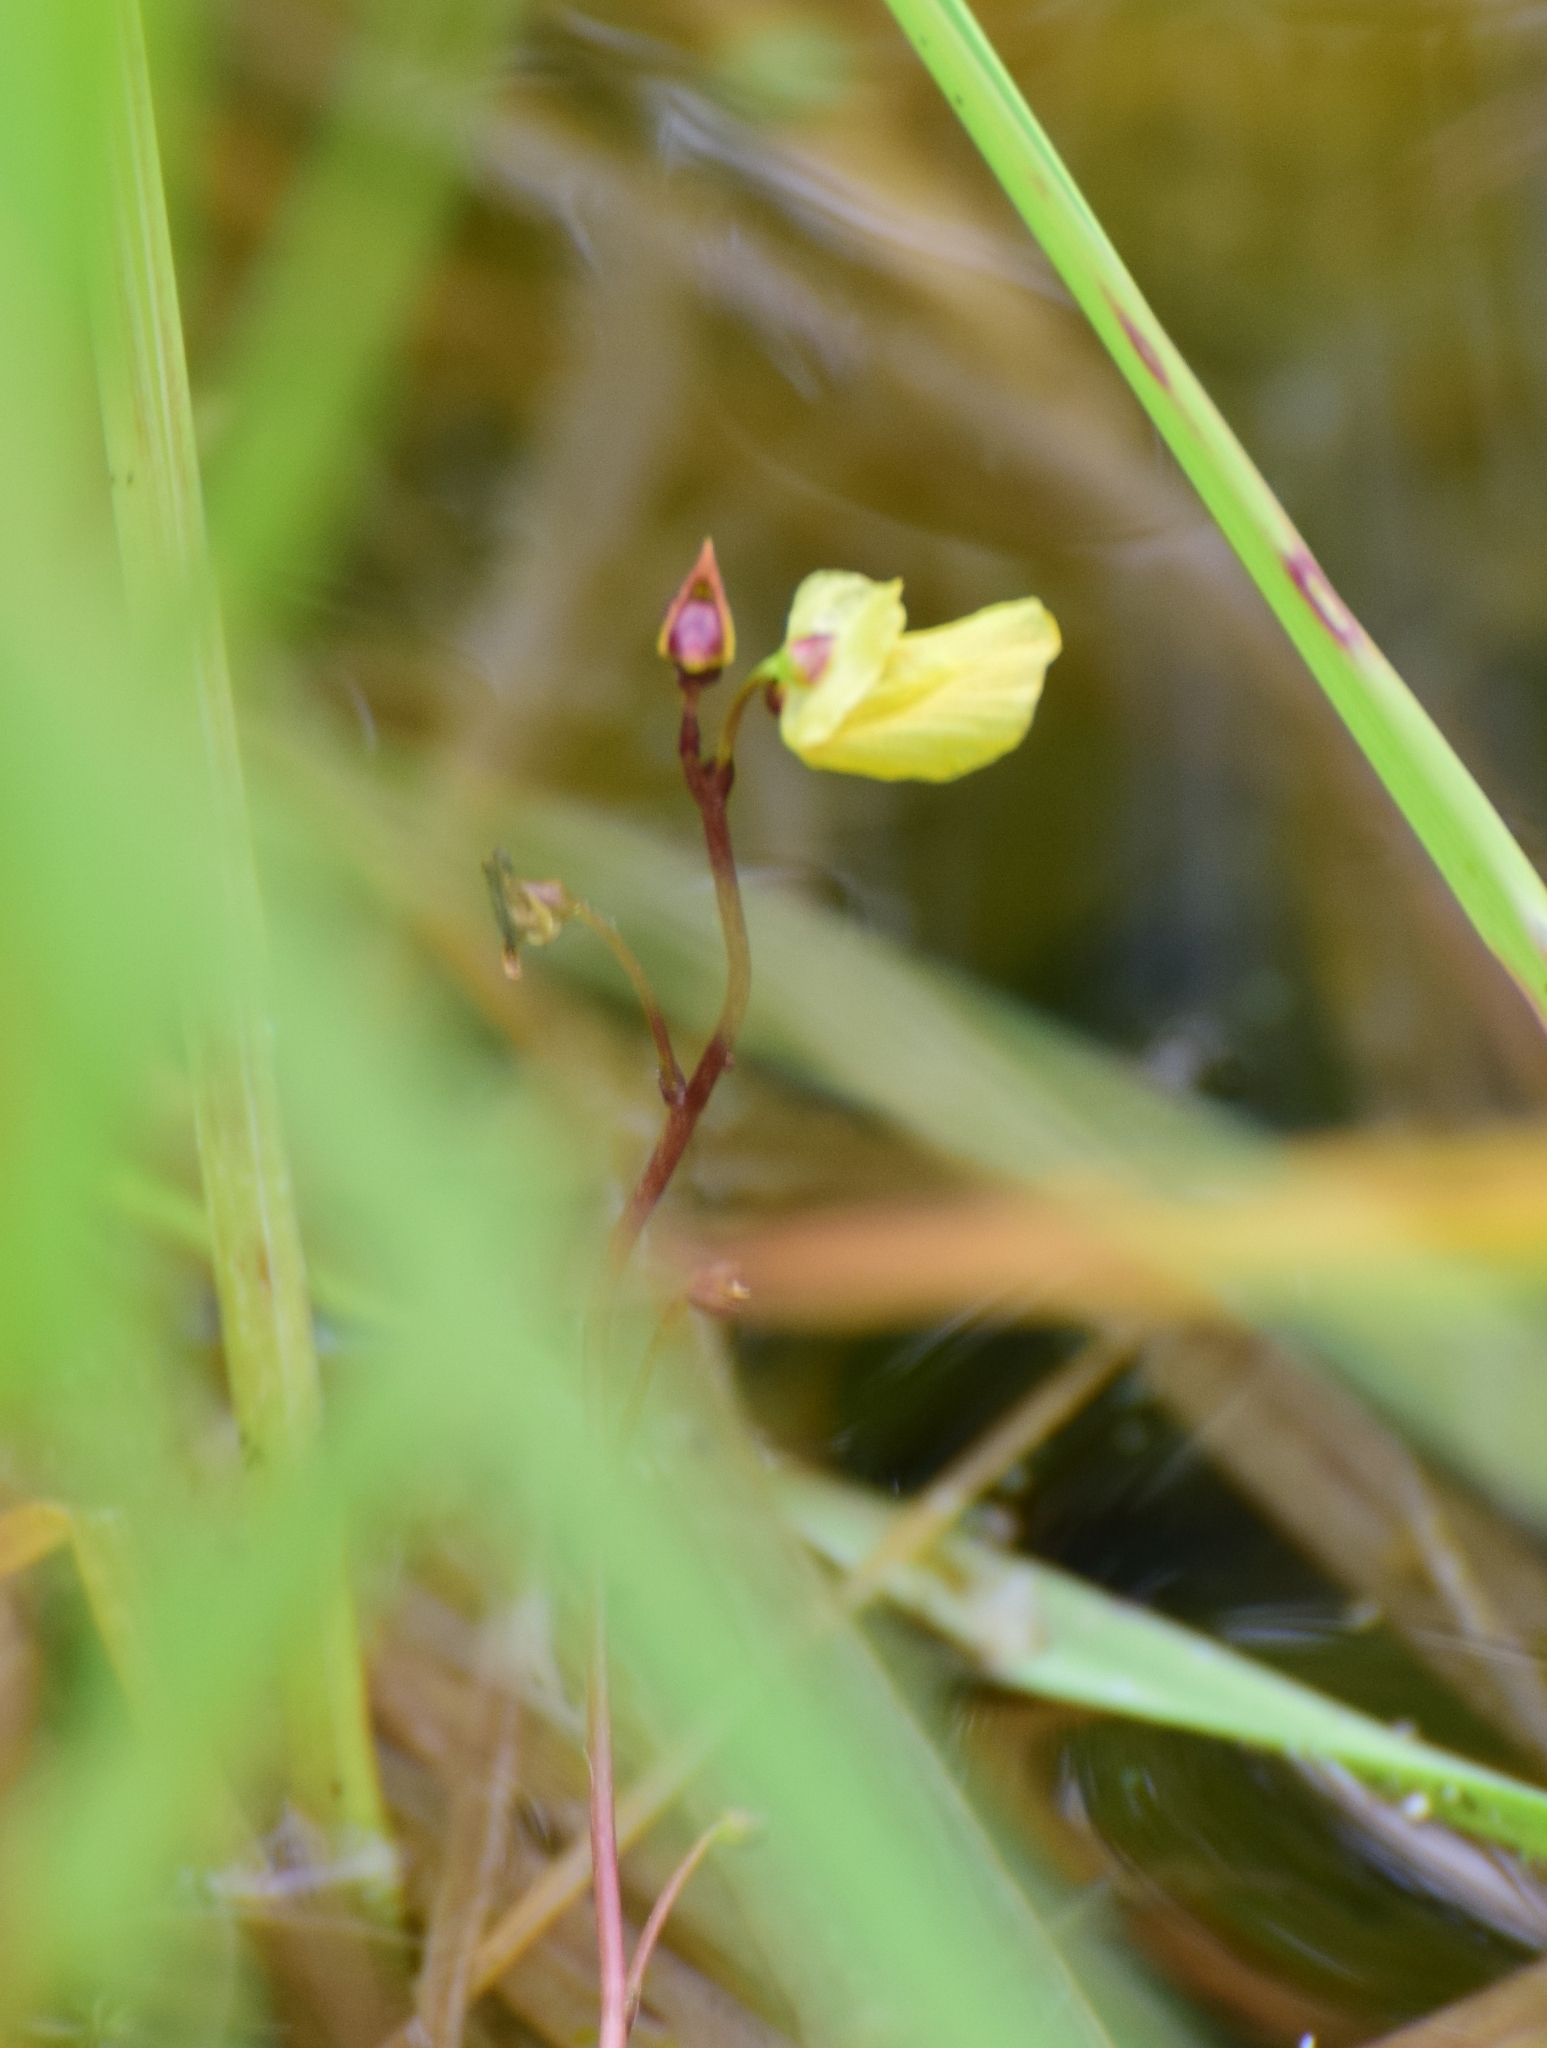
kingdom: Plantae
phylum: Tracheophyta
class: Magnoliopsida
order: Lamiales
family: Lentibulariaceae
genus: Utricularia
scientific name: Utricularia minor
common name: Lesser bladderwort
